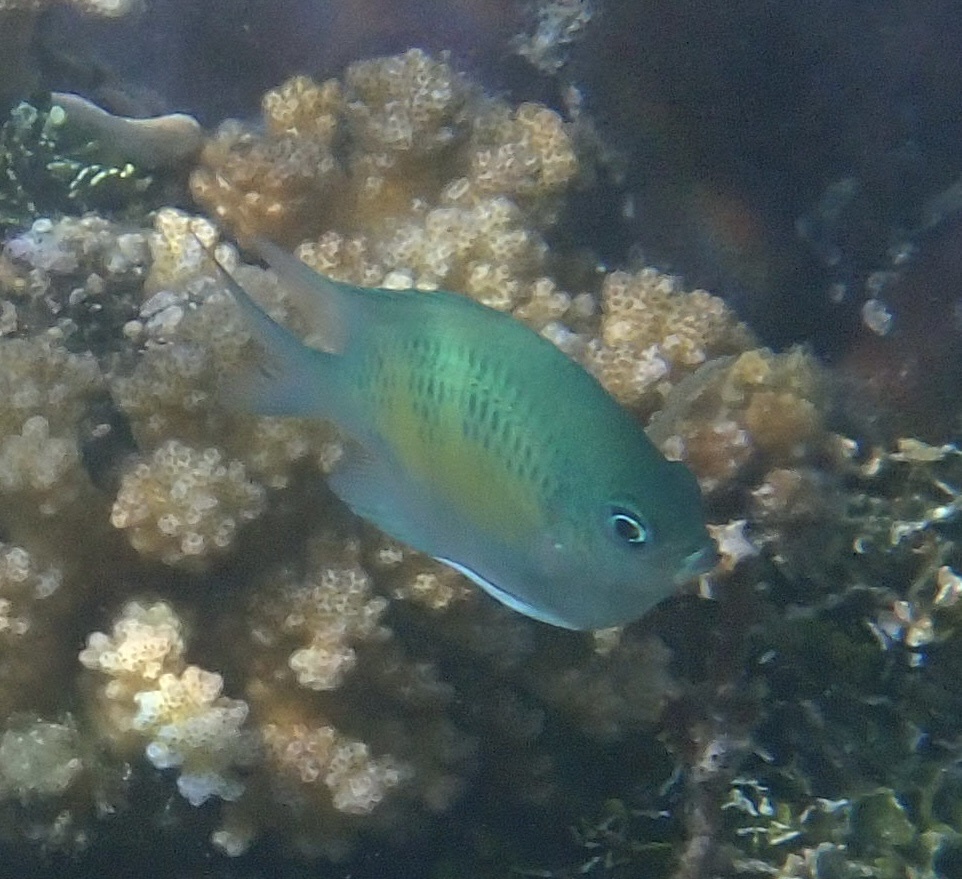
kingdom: Animalia
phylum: Chordata
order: Perciformes
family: Pomacentridae
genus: Amblyglyphidodon
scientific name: Amblyglyphidodon curacao
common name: Staghorn damsel
